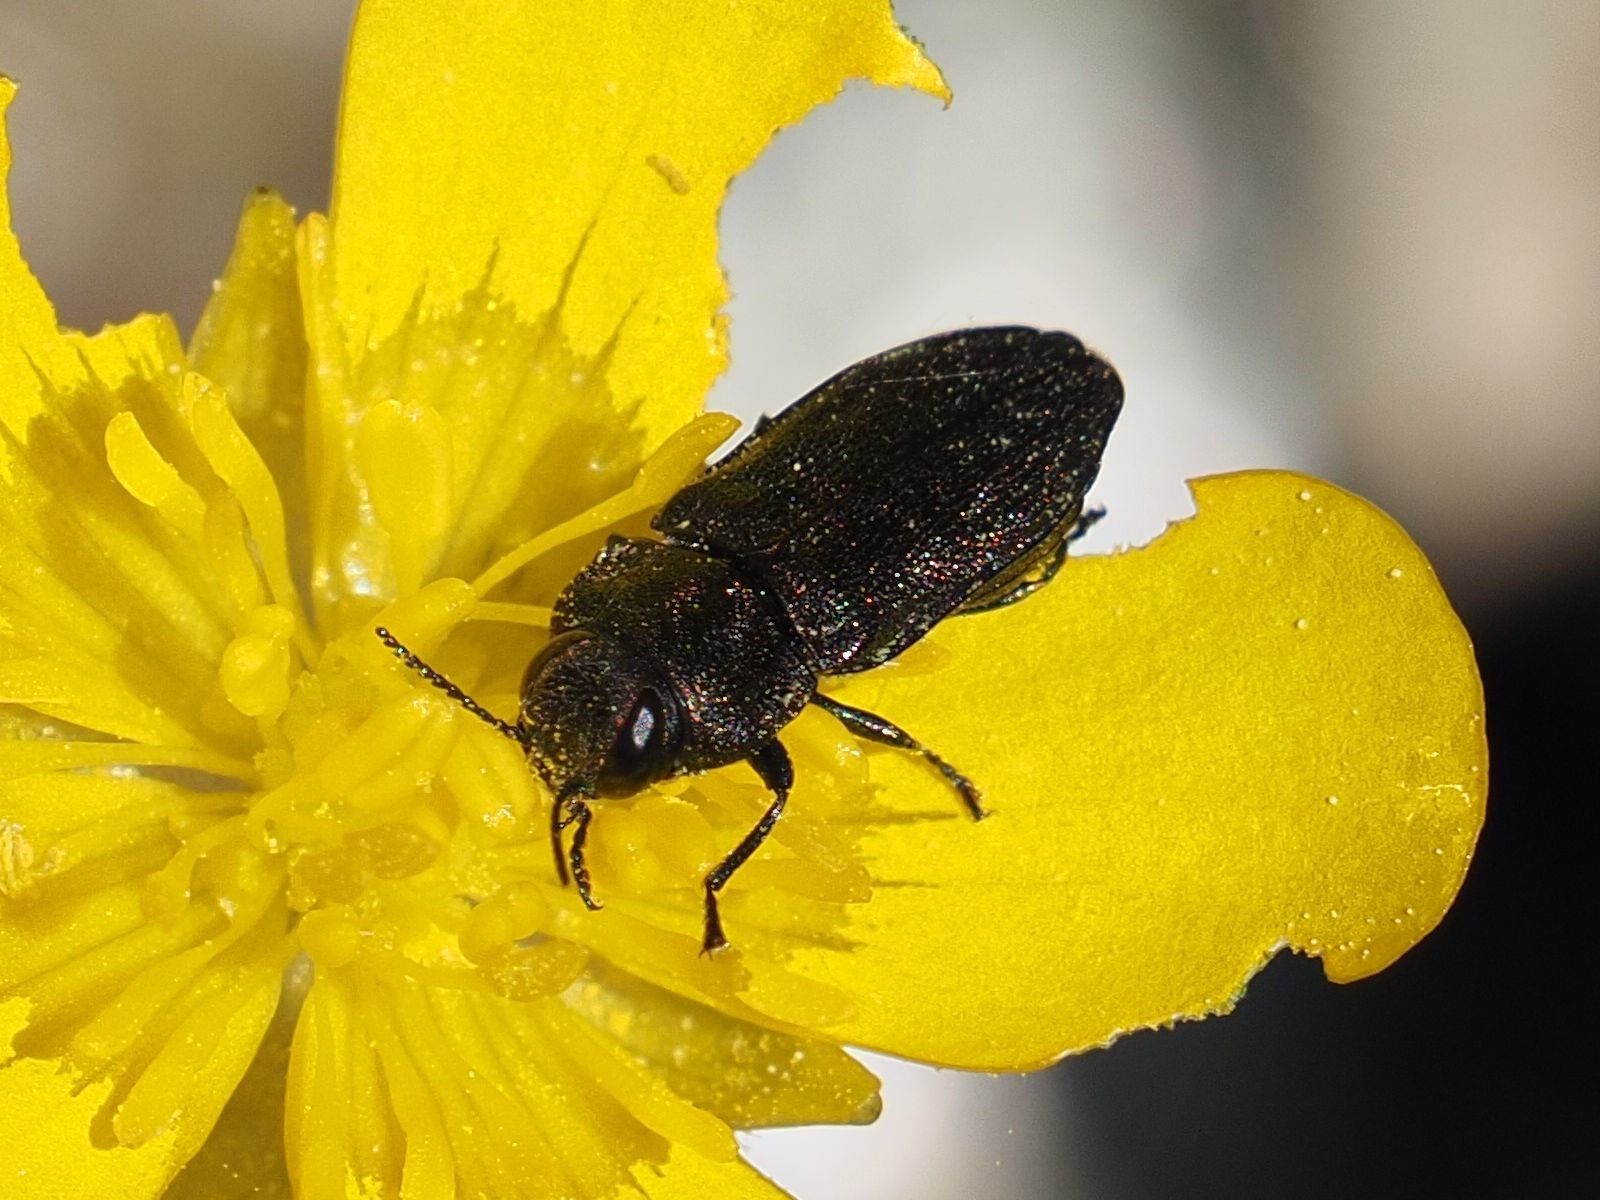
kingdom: Animalia
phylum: Arthropoda
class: Insecta
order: Coleoptera
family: Buprestidae
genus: Anthaxia
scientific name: Anthaxia morio
